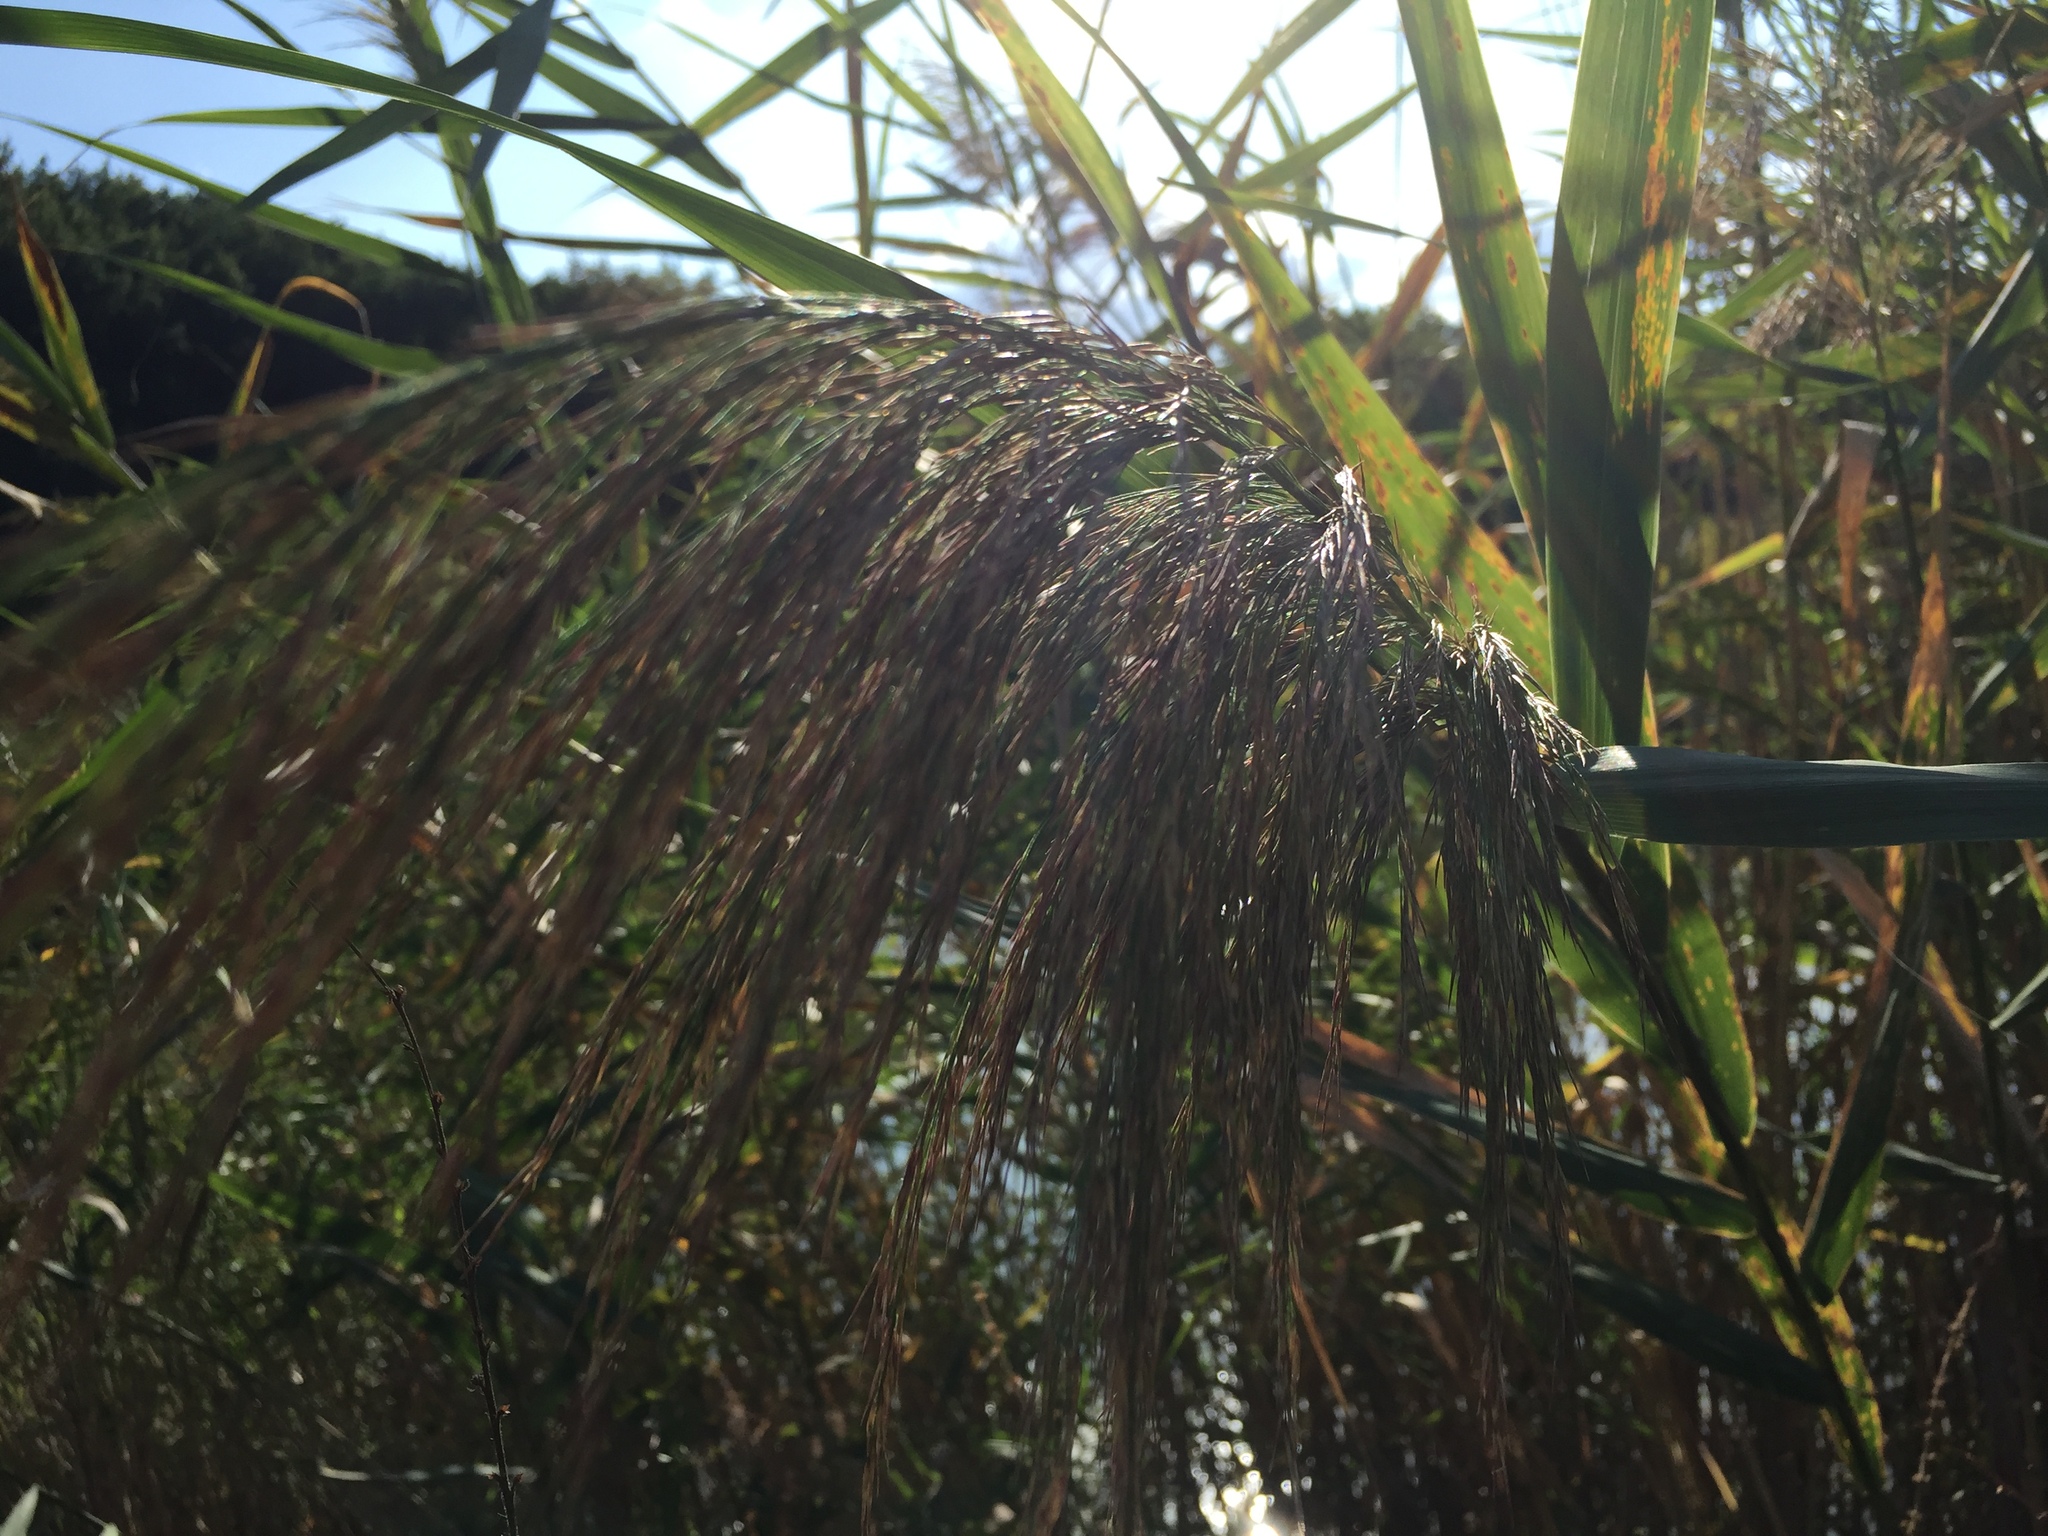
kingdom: Plantae
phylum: Tracheophyta
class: Liliopsida
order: Poales
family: Poaceae
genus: Phragmites
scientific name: Phragmites australis
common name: Common reed
